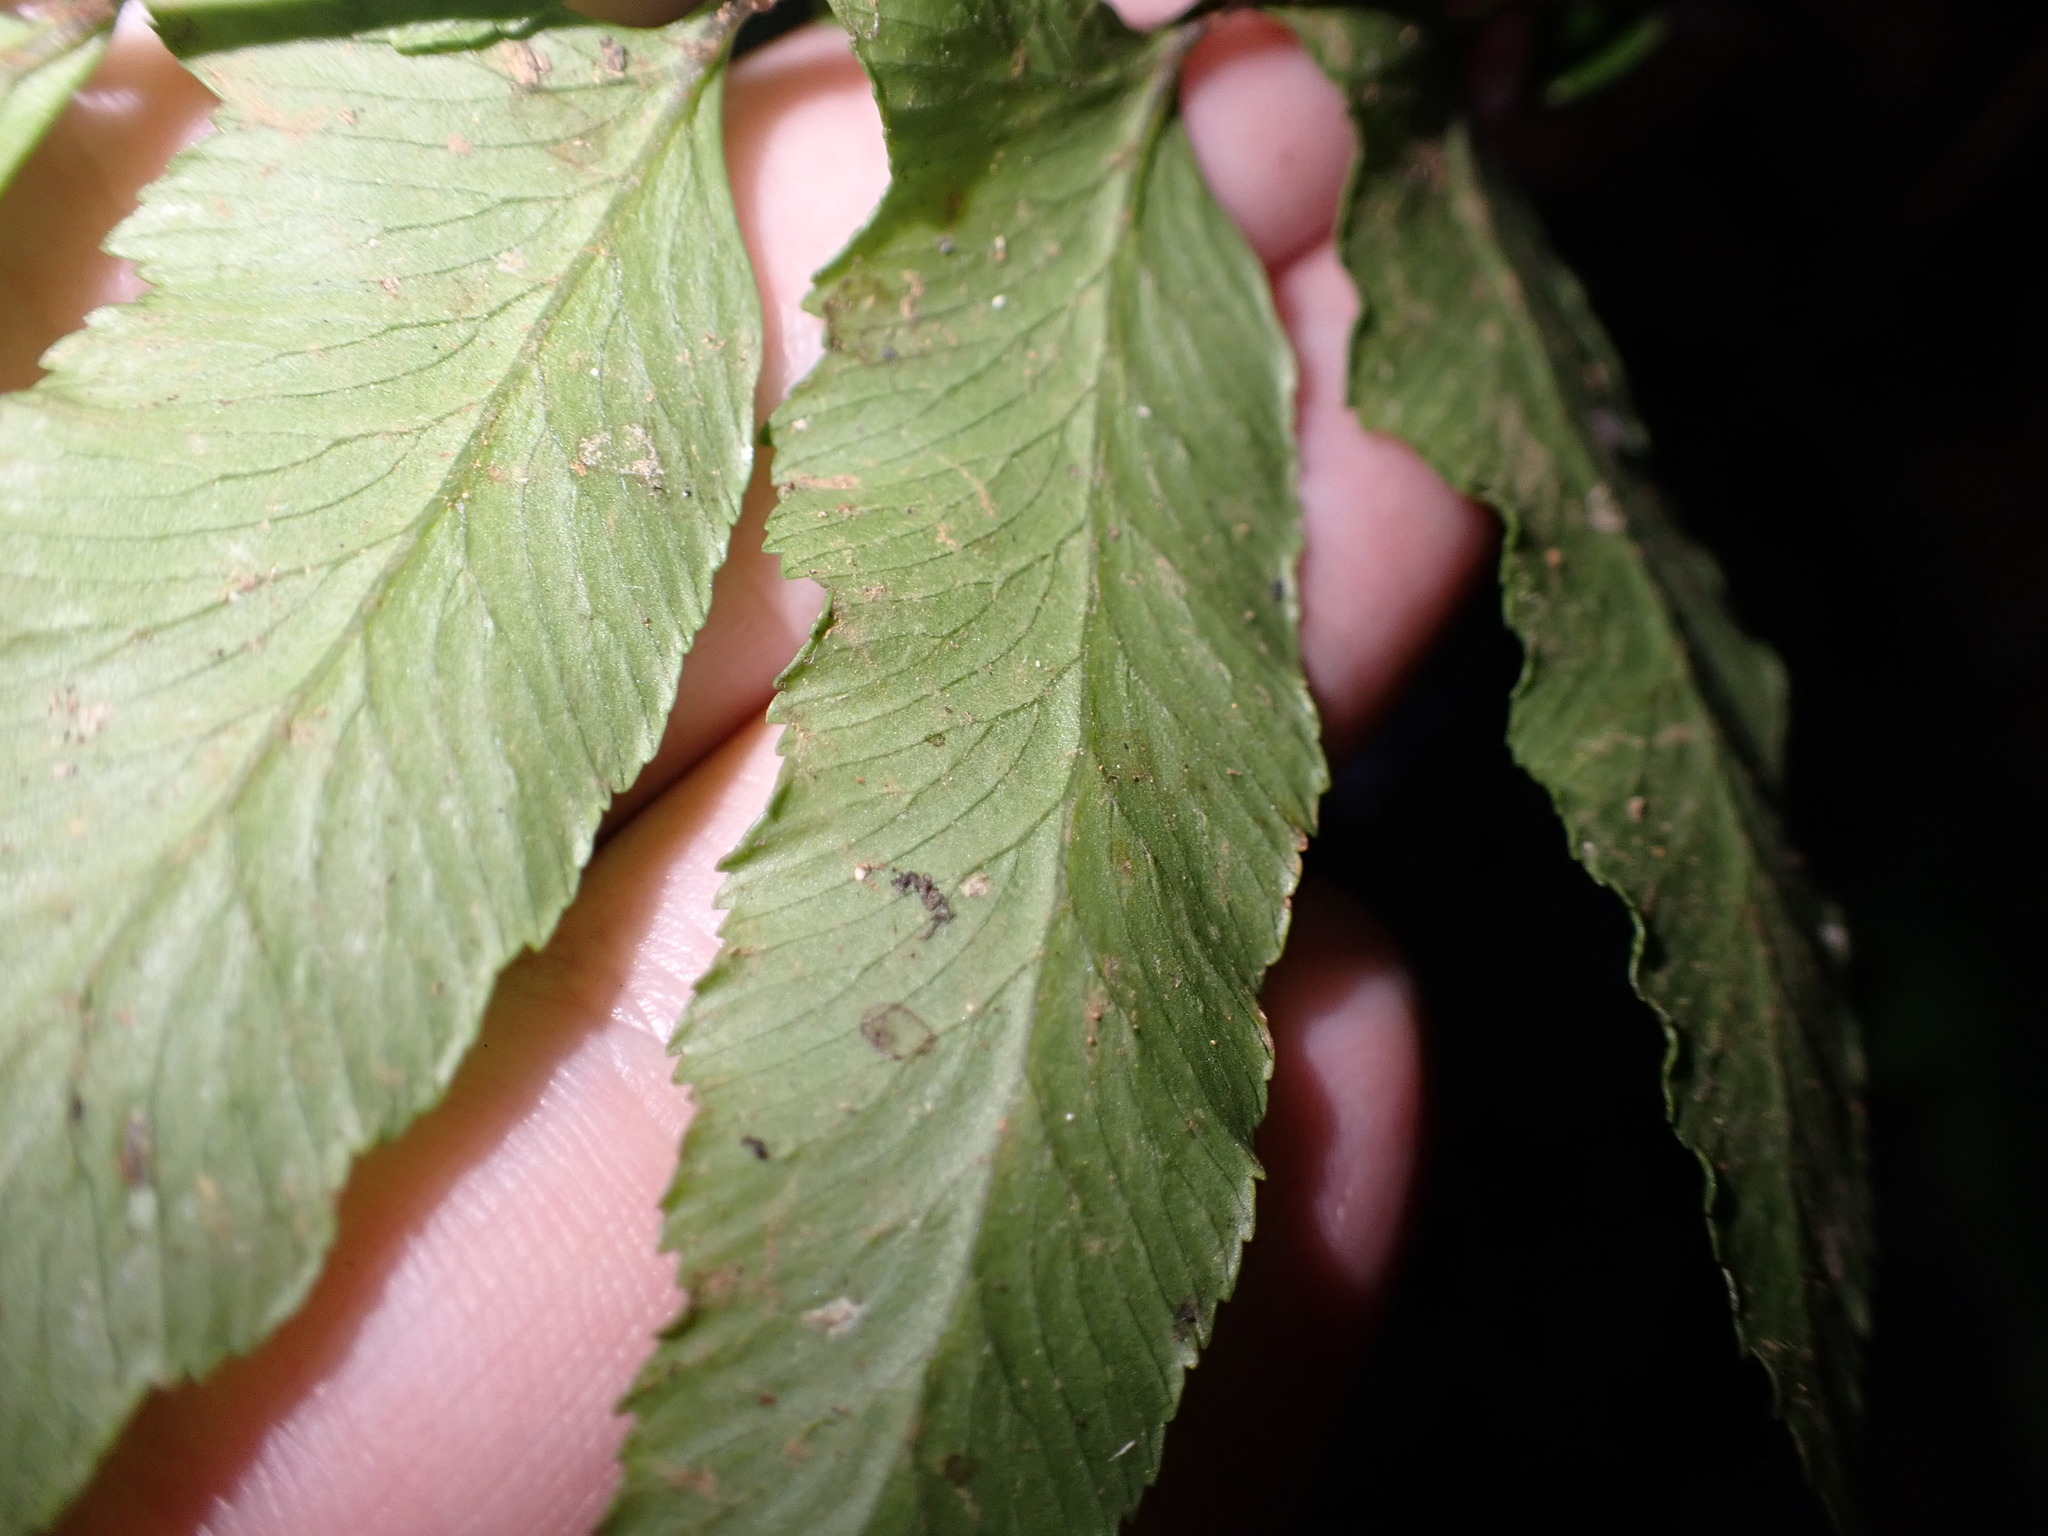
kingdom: Plantae
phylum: Tracheophyta
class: Polypodiopsida
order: Polypodiales
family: Dennstaedtiaceae
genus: Microlepia
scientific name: Microlepia marginata
